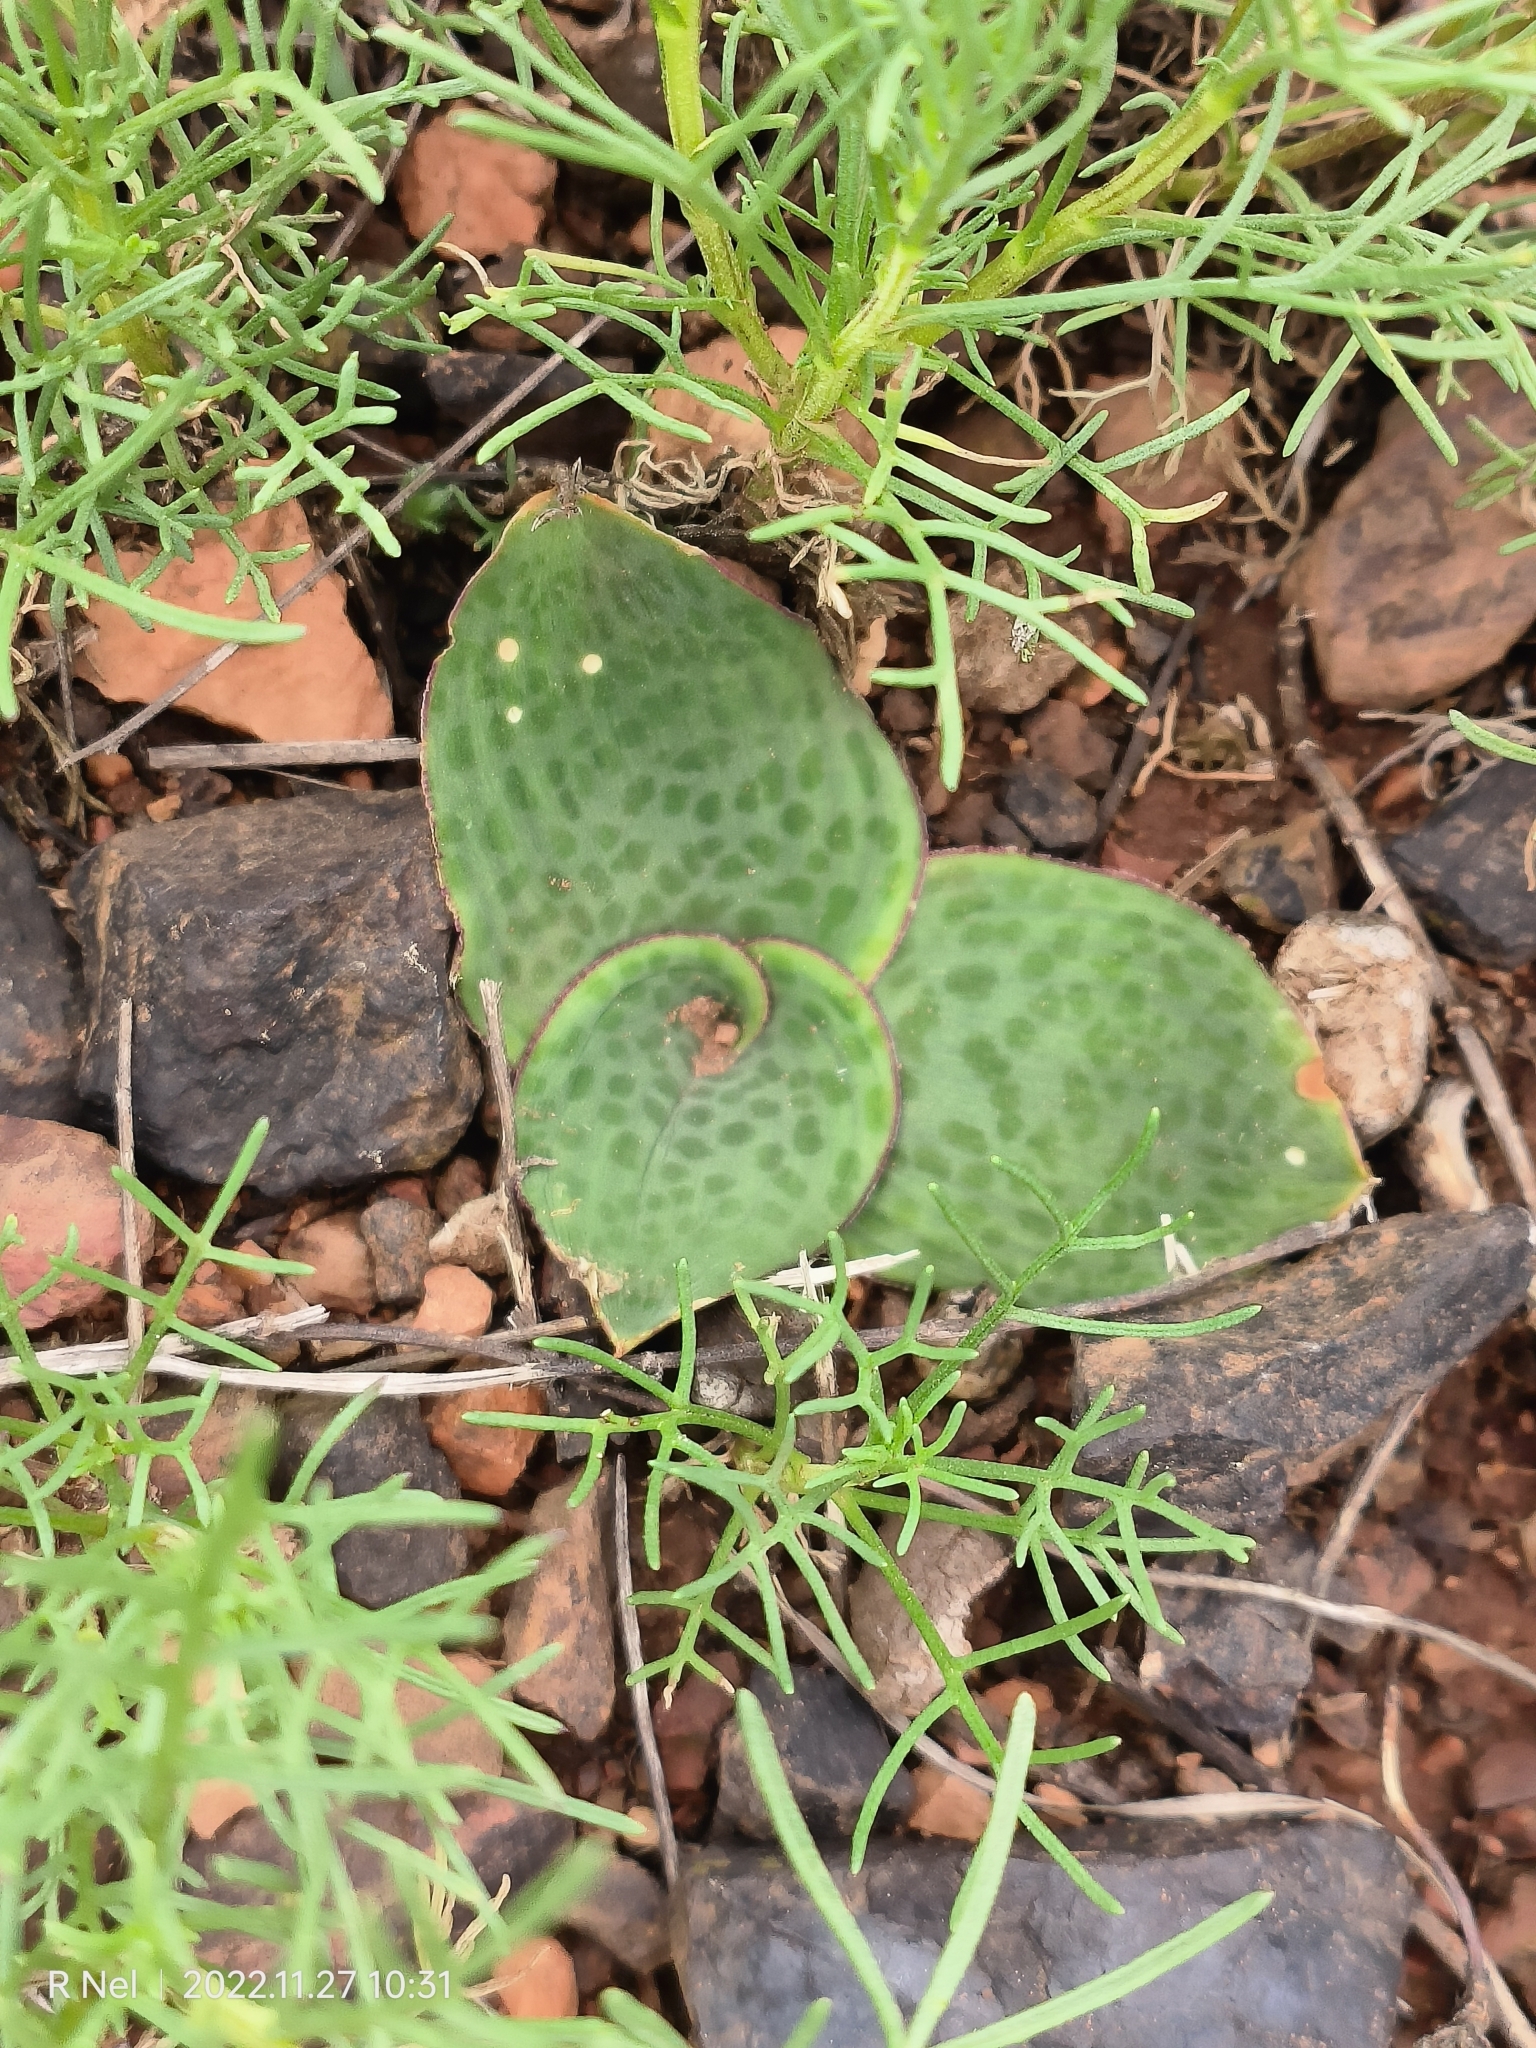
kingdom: Plantae
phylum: Tracheophyta
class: Liliopsida
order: Asparagales
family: Asparagaceae
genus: Ledebouria
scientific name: Ledebouria ovatifolia
